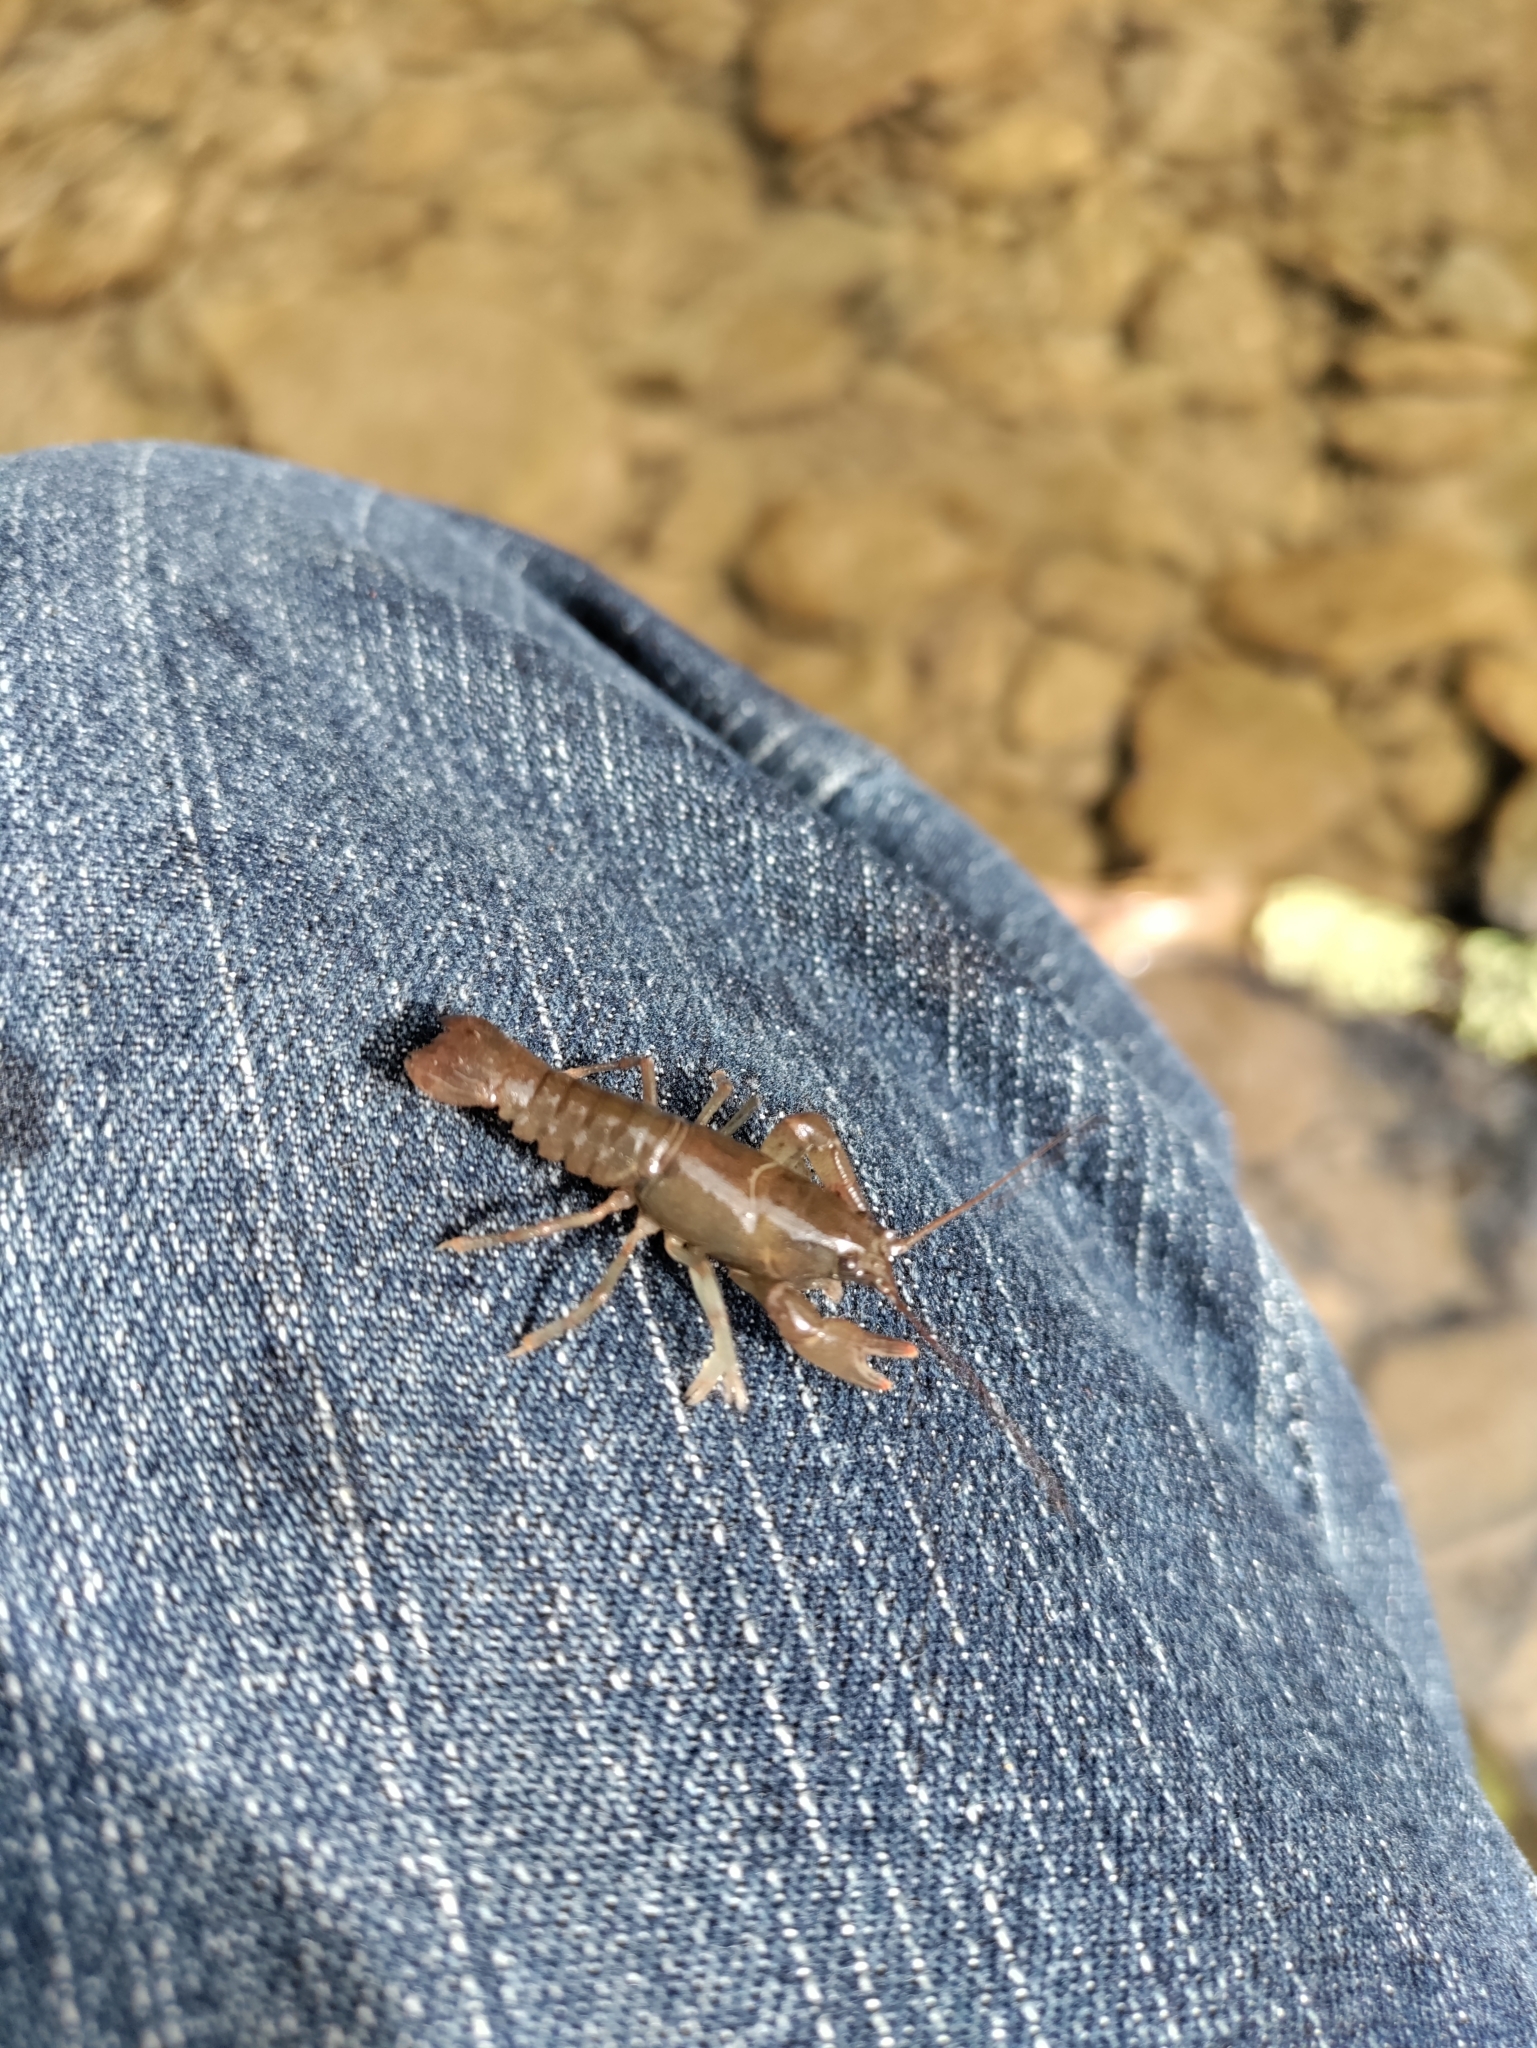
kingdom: Animalia
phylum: Arthropoda
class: Malacostraca
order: Decapoda
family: Cambaridae
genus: Cambarus
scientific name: Cambarus bartonii
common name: Appalachian brook crayfish
